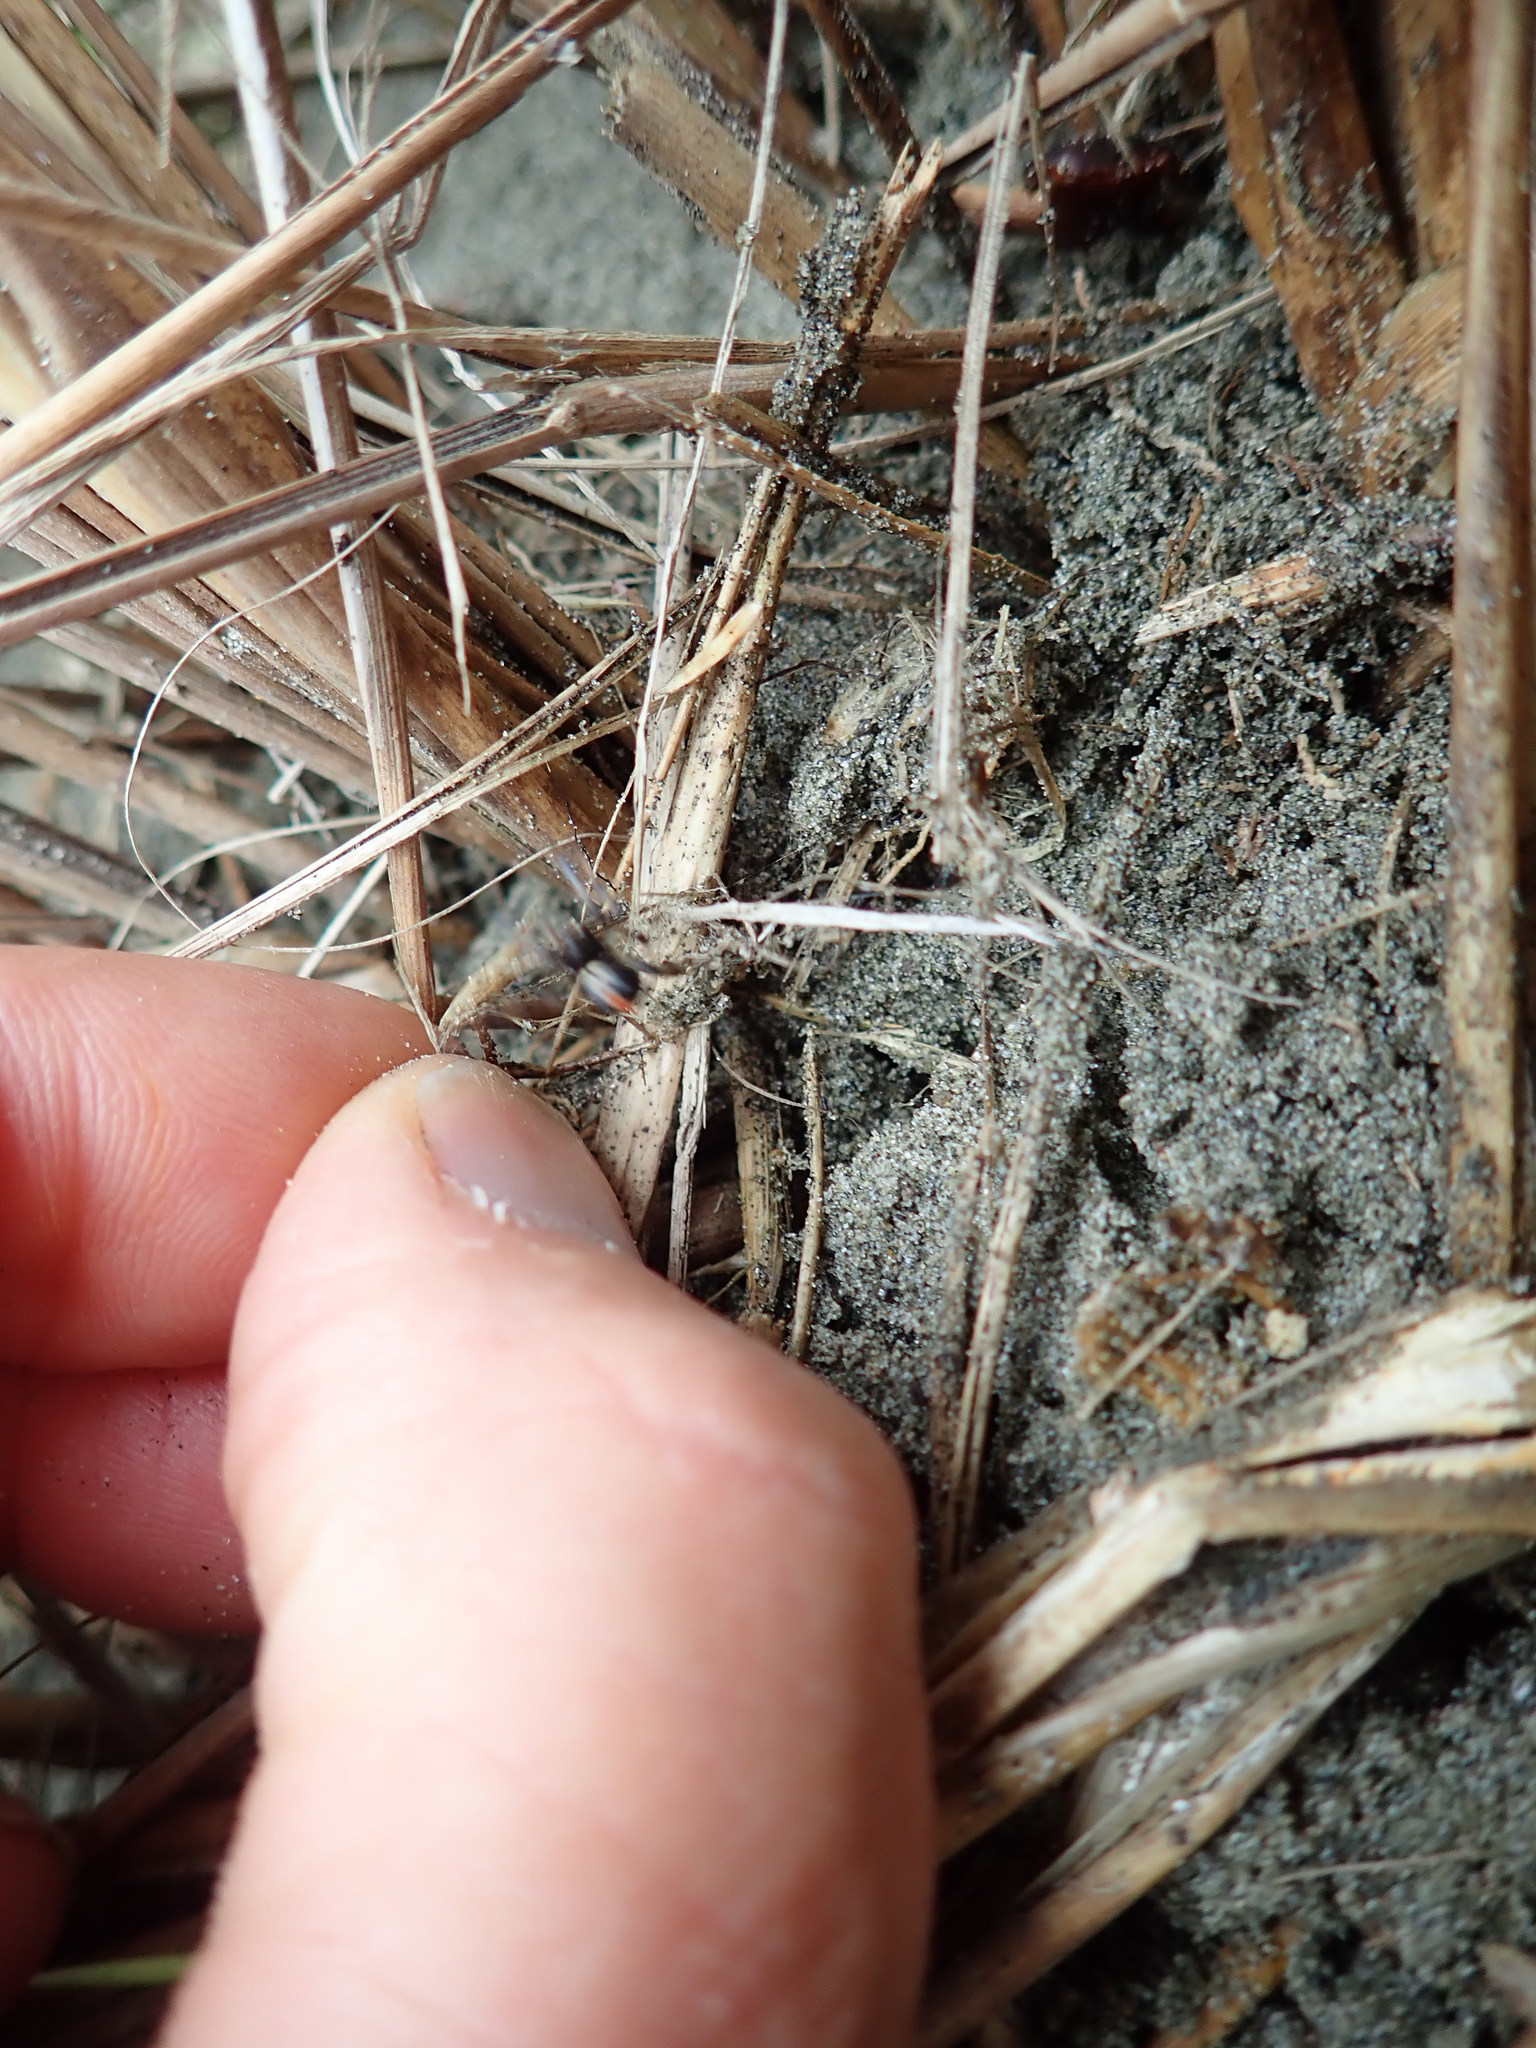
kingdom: Animalia
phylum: Arthropoda
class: Arachnida
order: Opiliones
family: Phalangiidae
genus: Phalangium
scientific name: Phalangium opilio
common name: Daddy longleg
